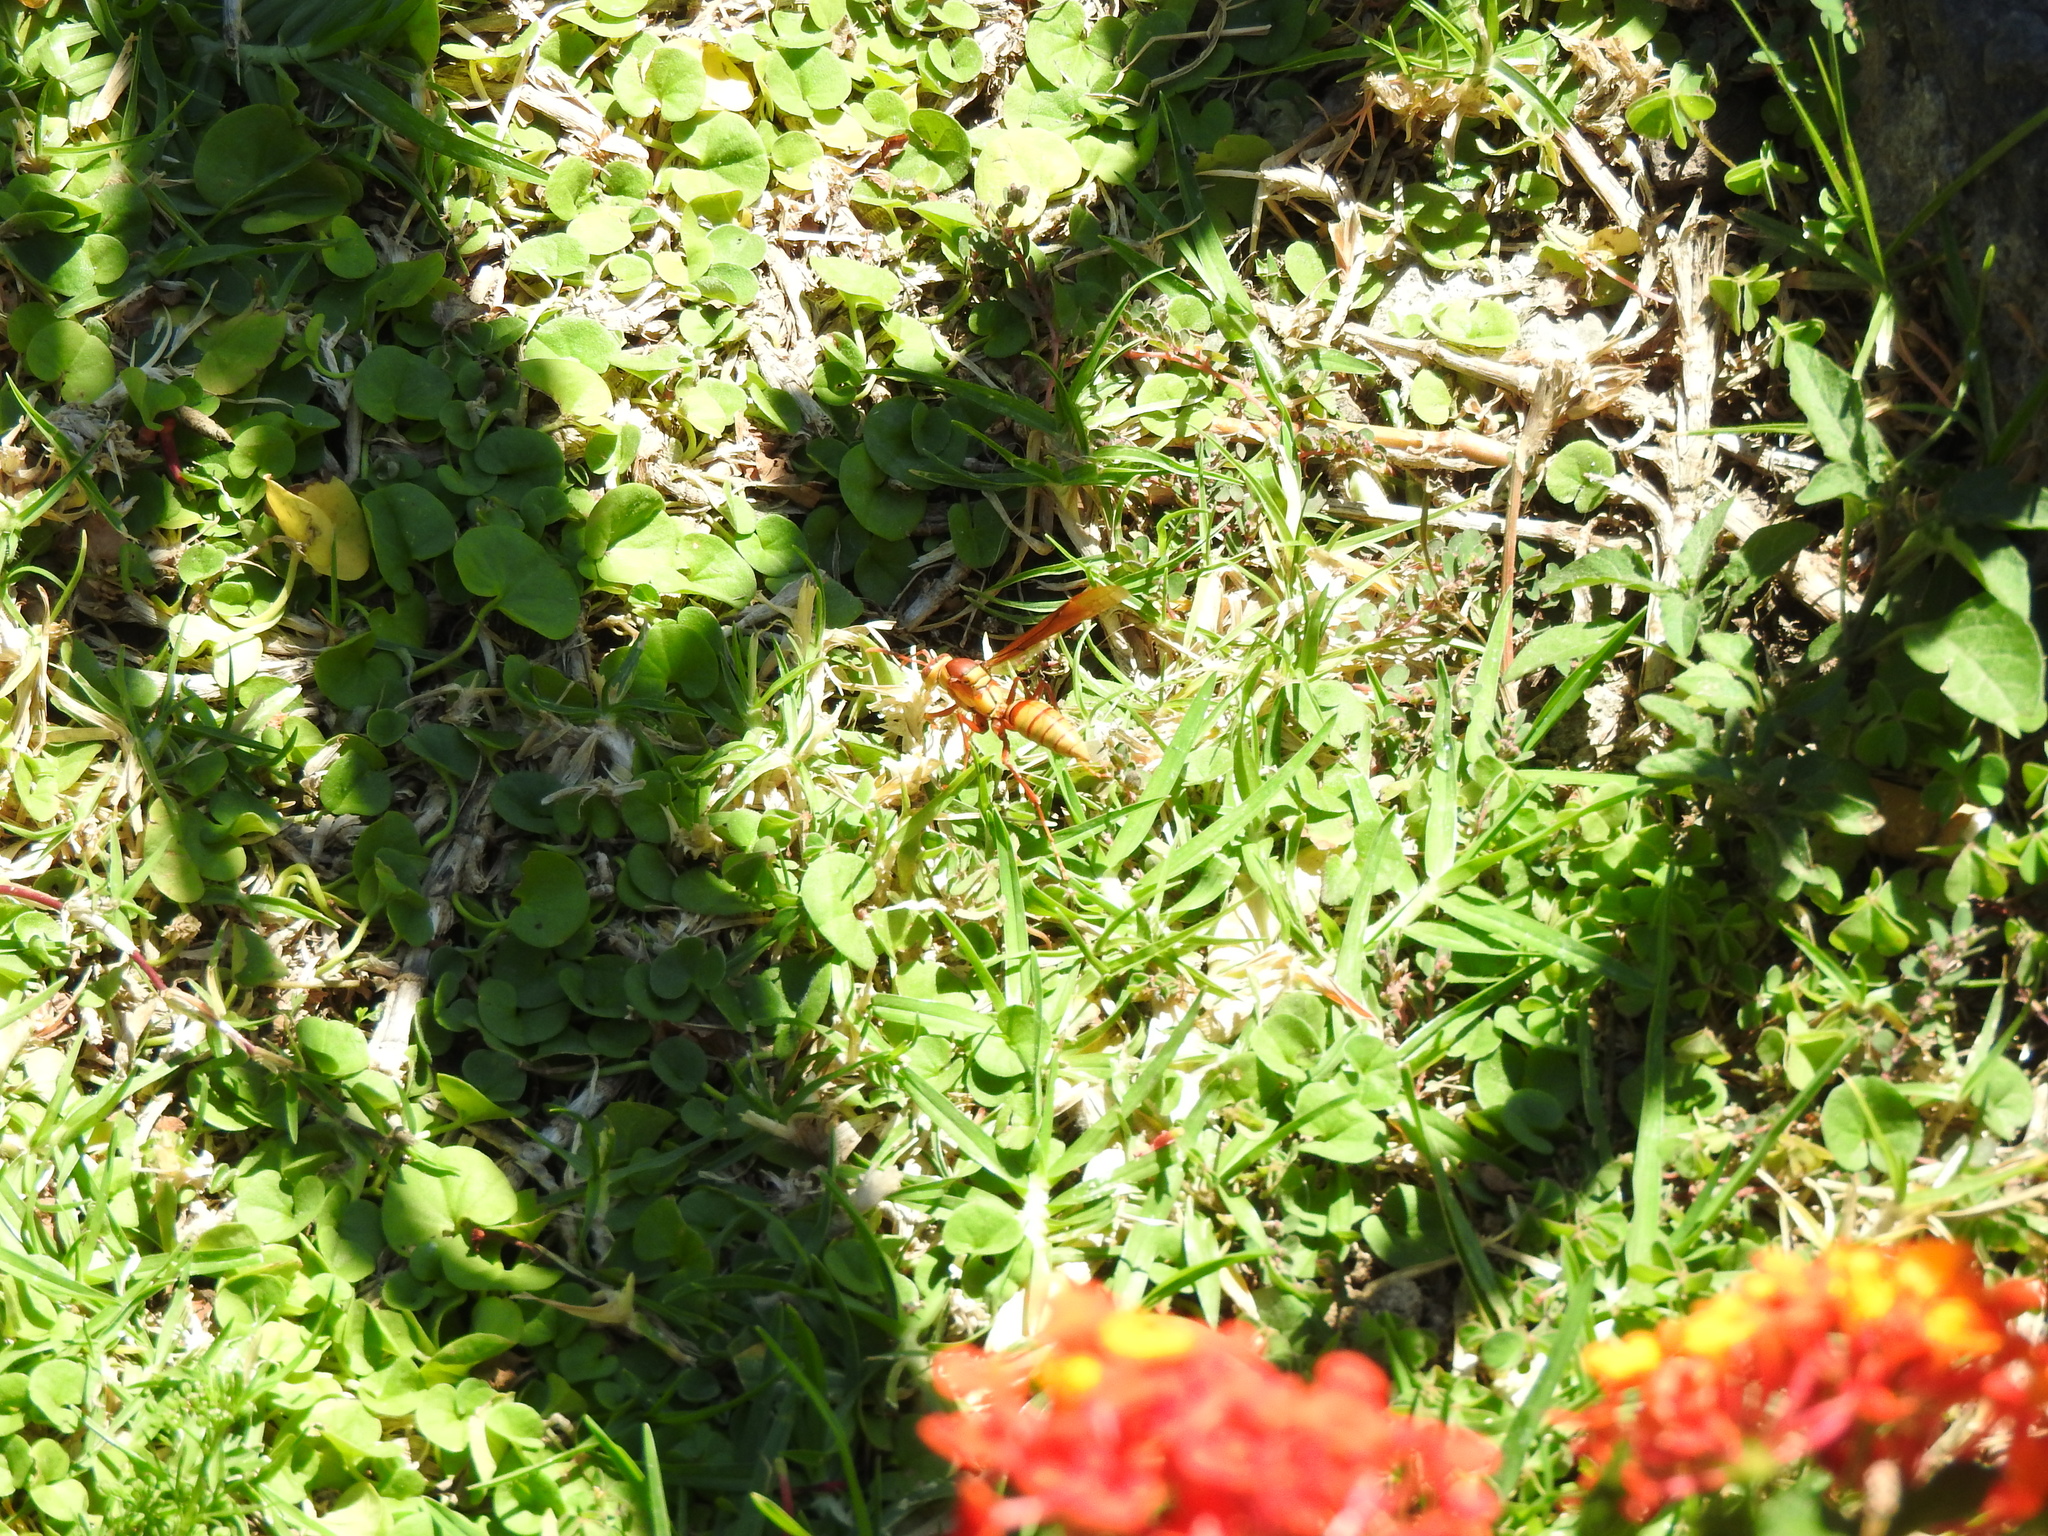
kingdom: Animalia
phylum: Arthropoda
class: Insecta
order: Hymenoptera
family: Eumenidae
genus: Polistes
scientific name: Polistes major
